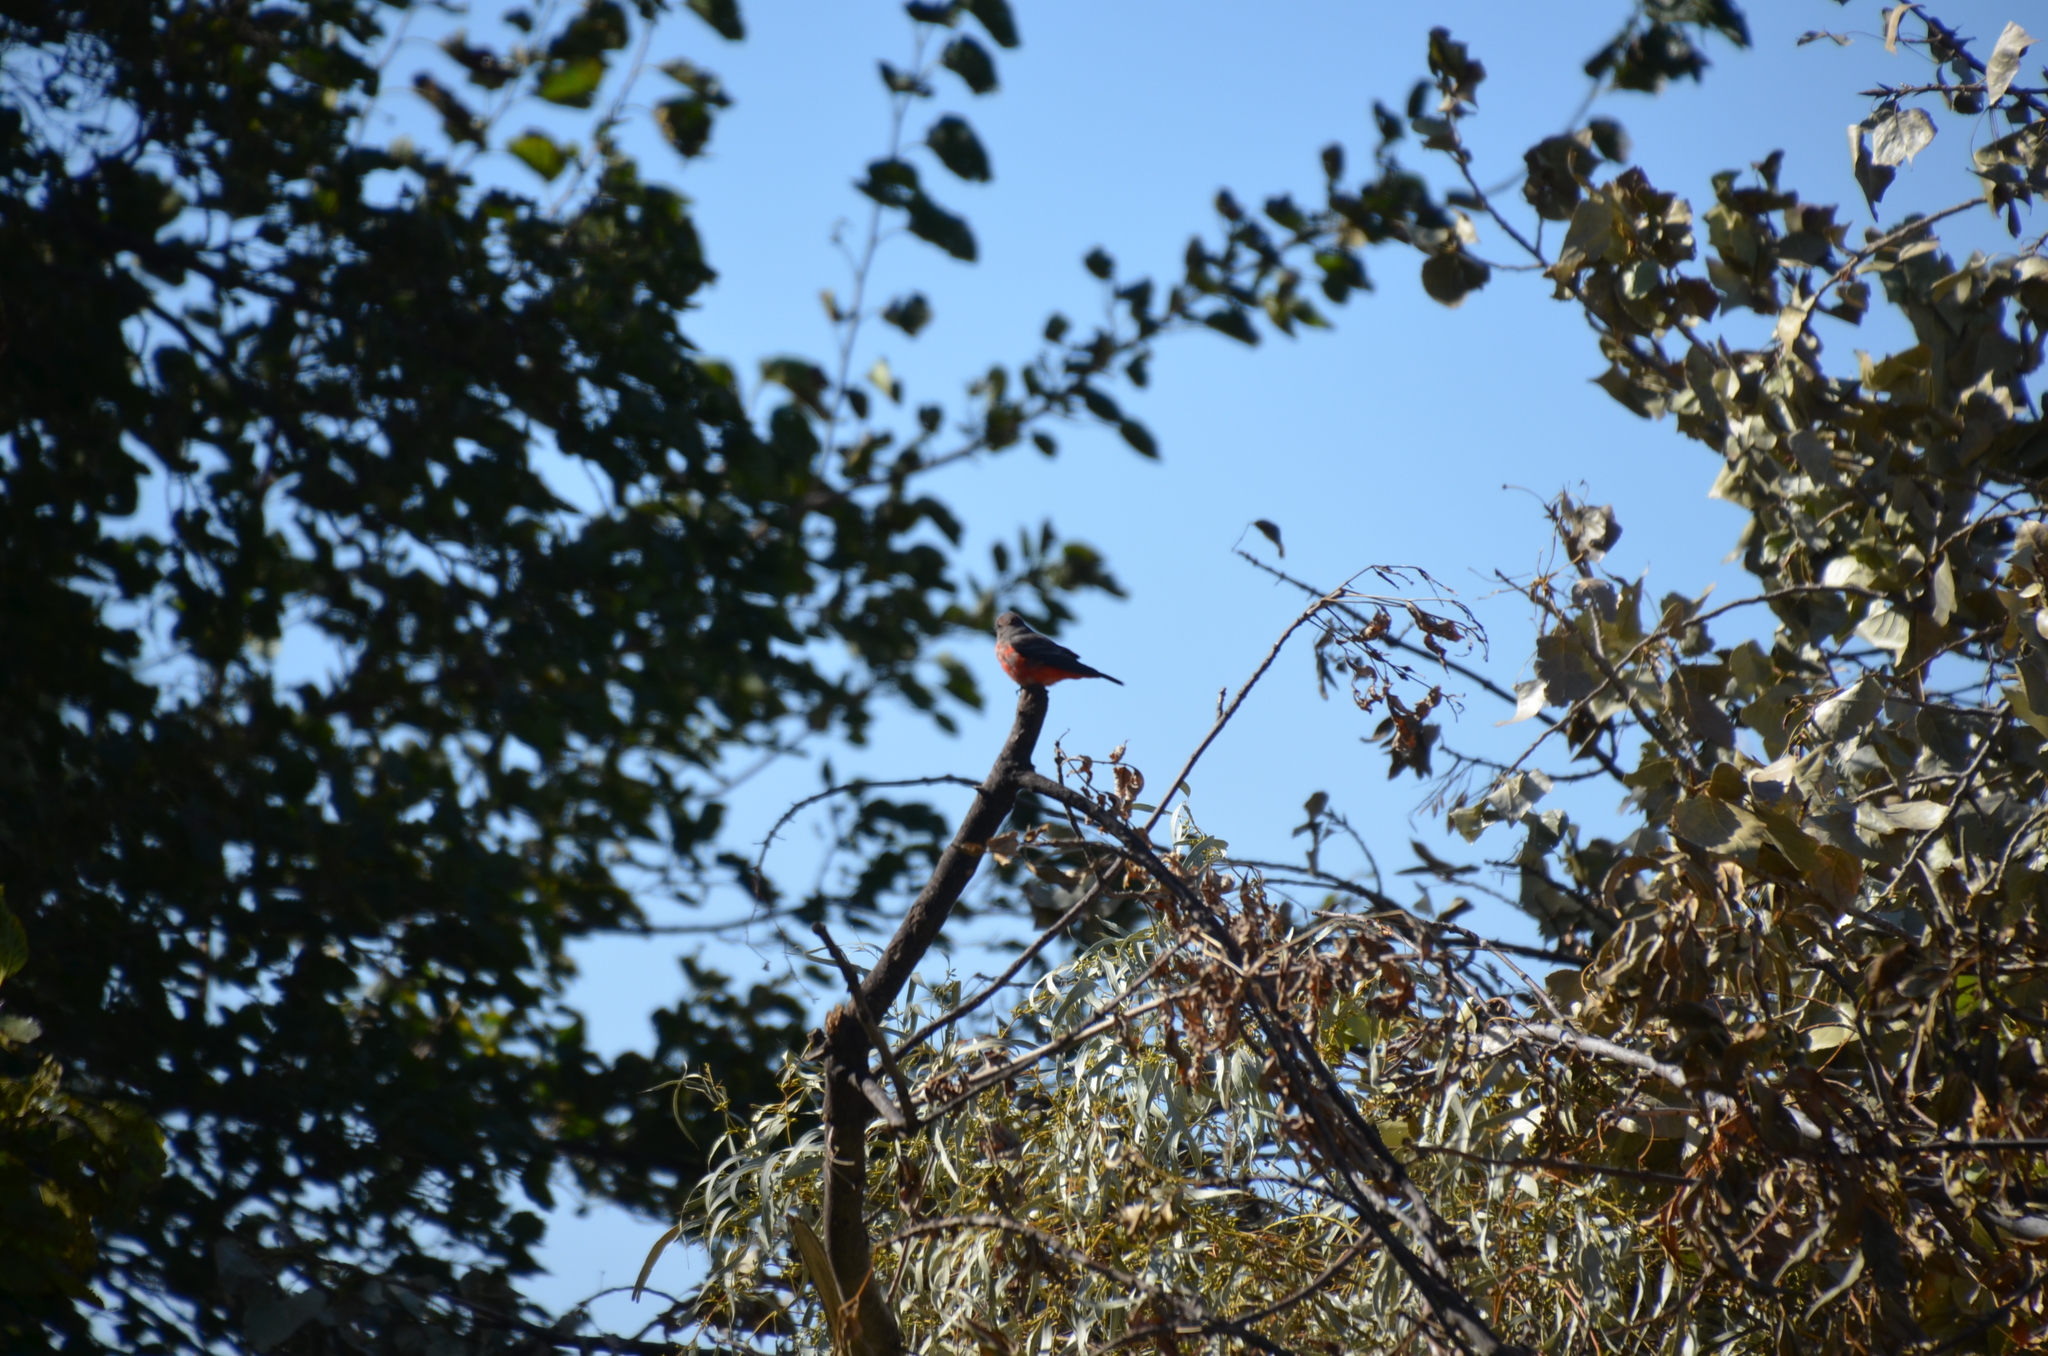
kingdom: Animalia
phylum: Chordata
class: Aves
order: Passeriformes
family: Tyrannidae
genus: Pyrocephalus
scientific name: Pyrocephalus rubinus
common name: Vermilion flycatcher
